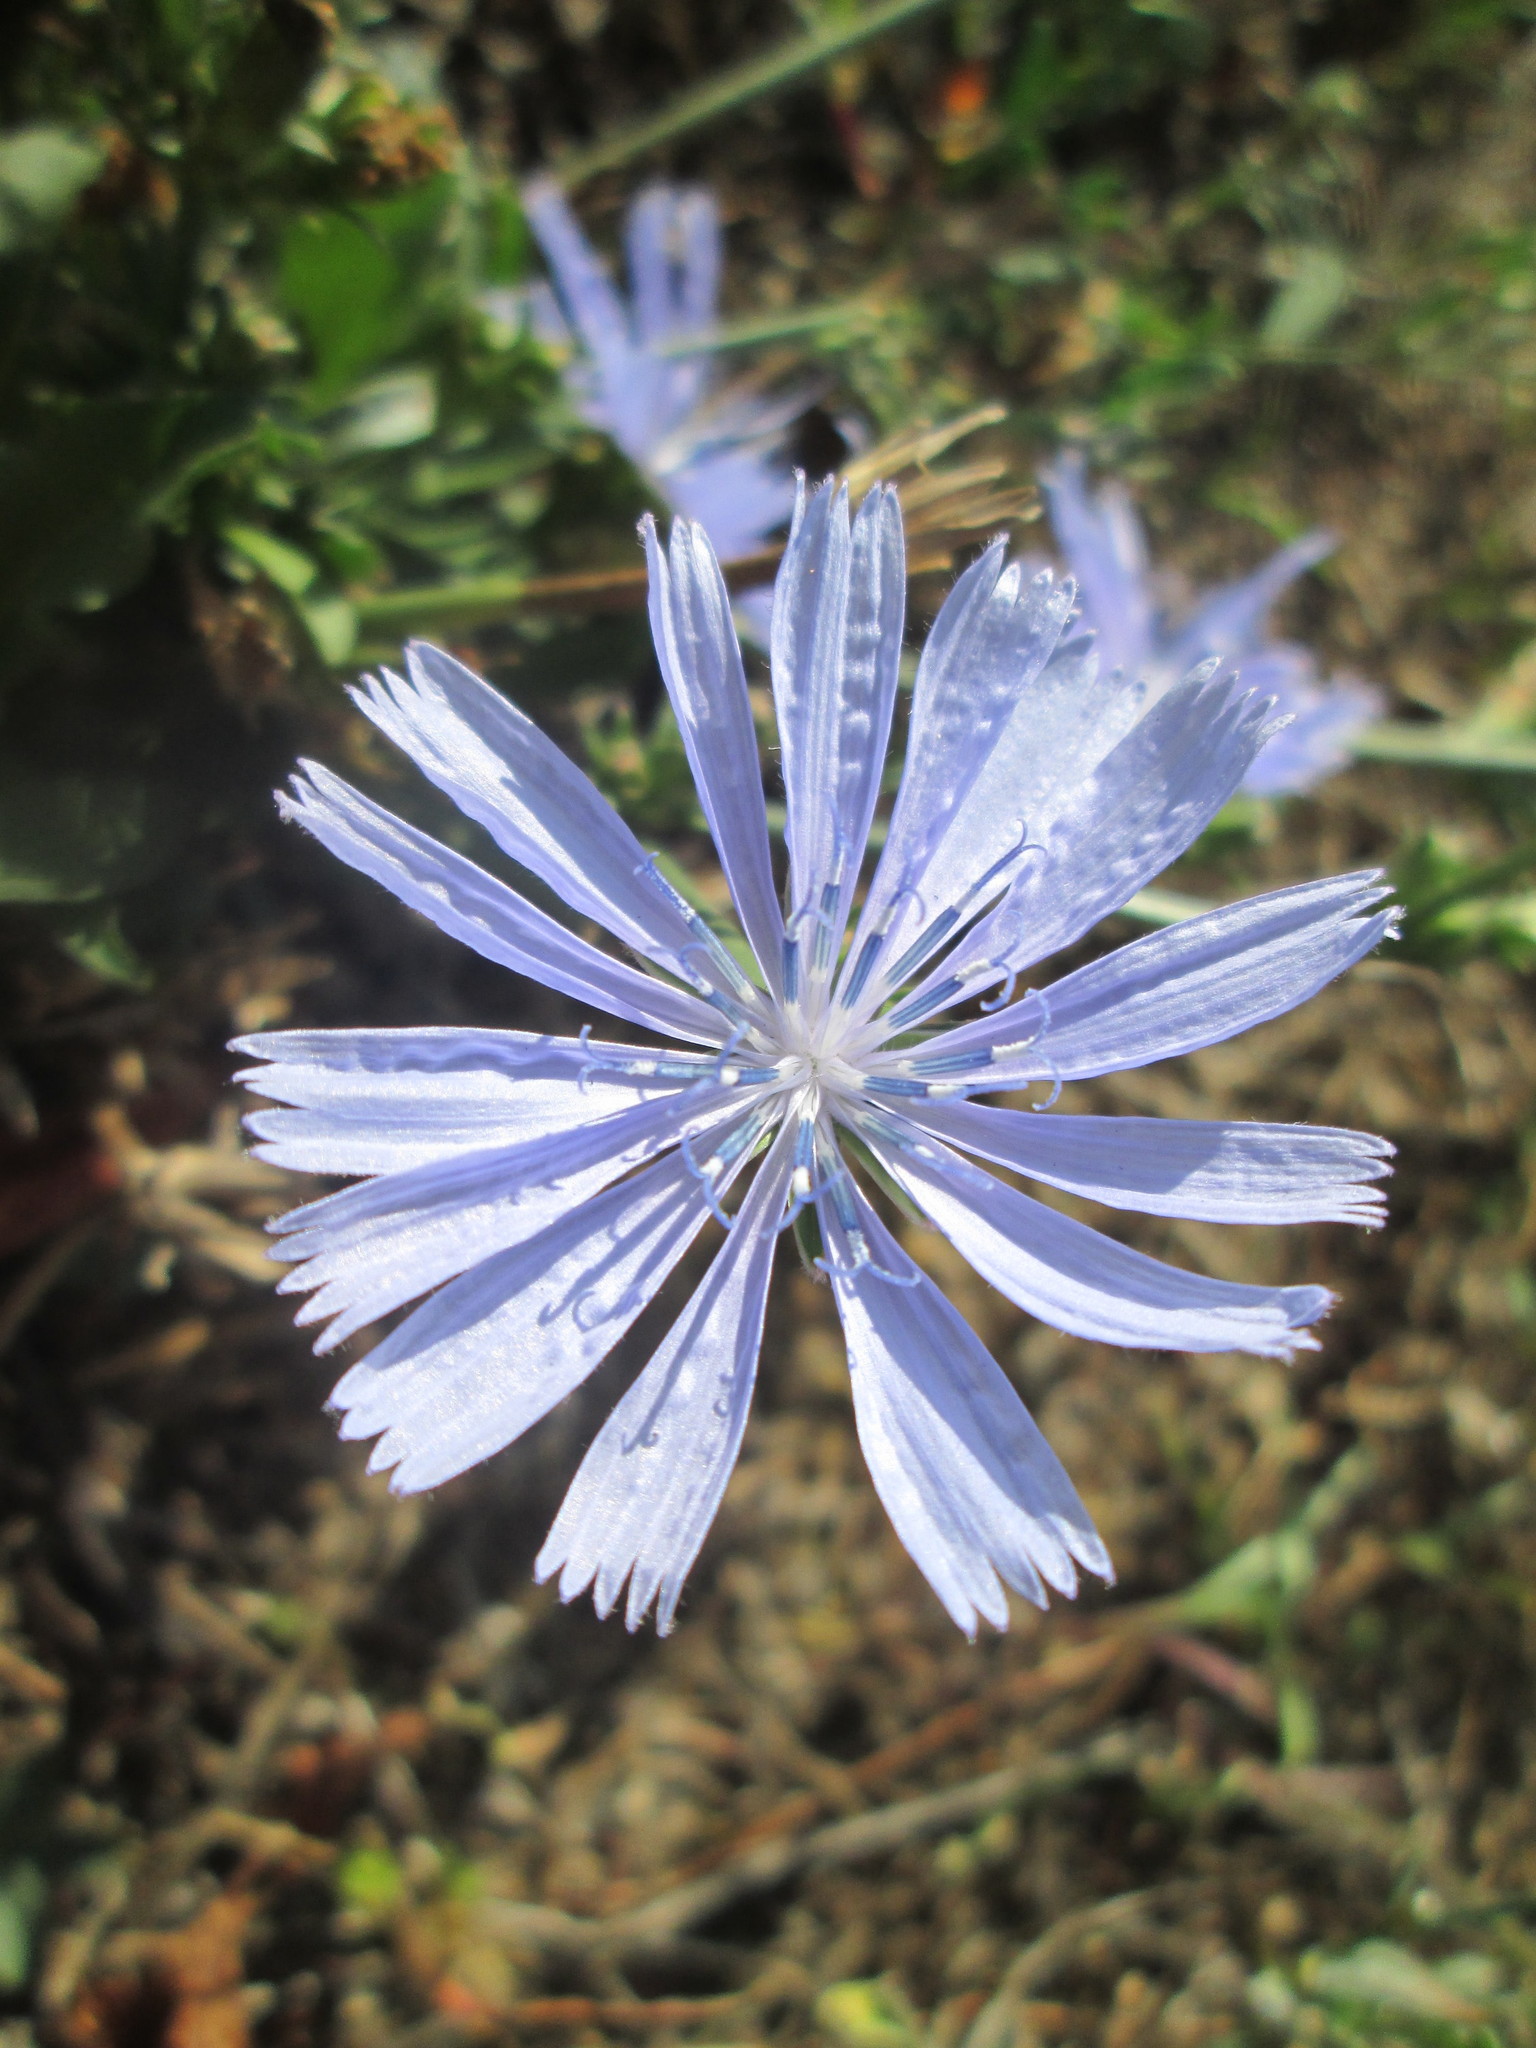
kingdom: Plantae
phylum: Tracheophyta
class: Magnoliopsida
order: Asterales
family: Asteraceae
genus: Cichorium
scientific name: Cichorium intybus
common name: Chicory
